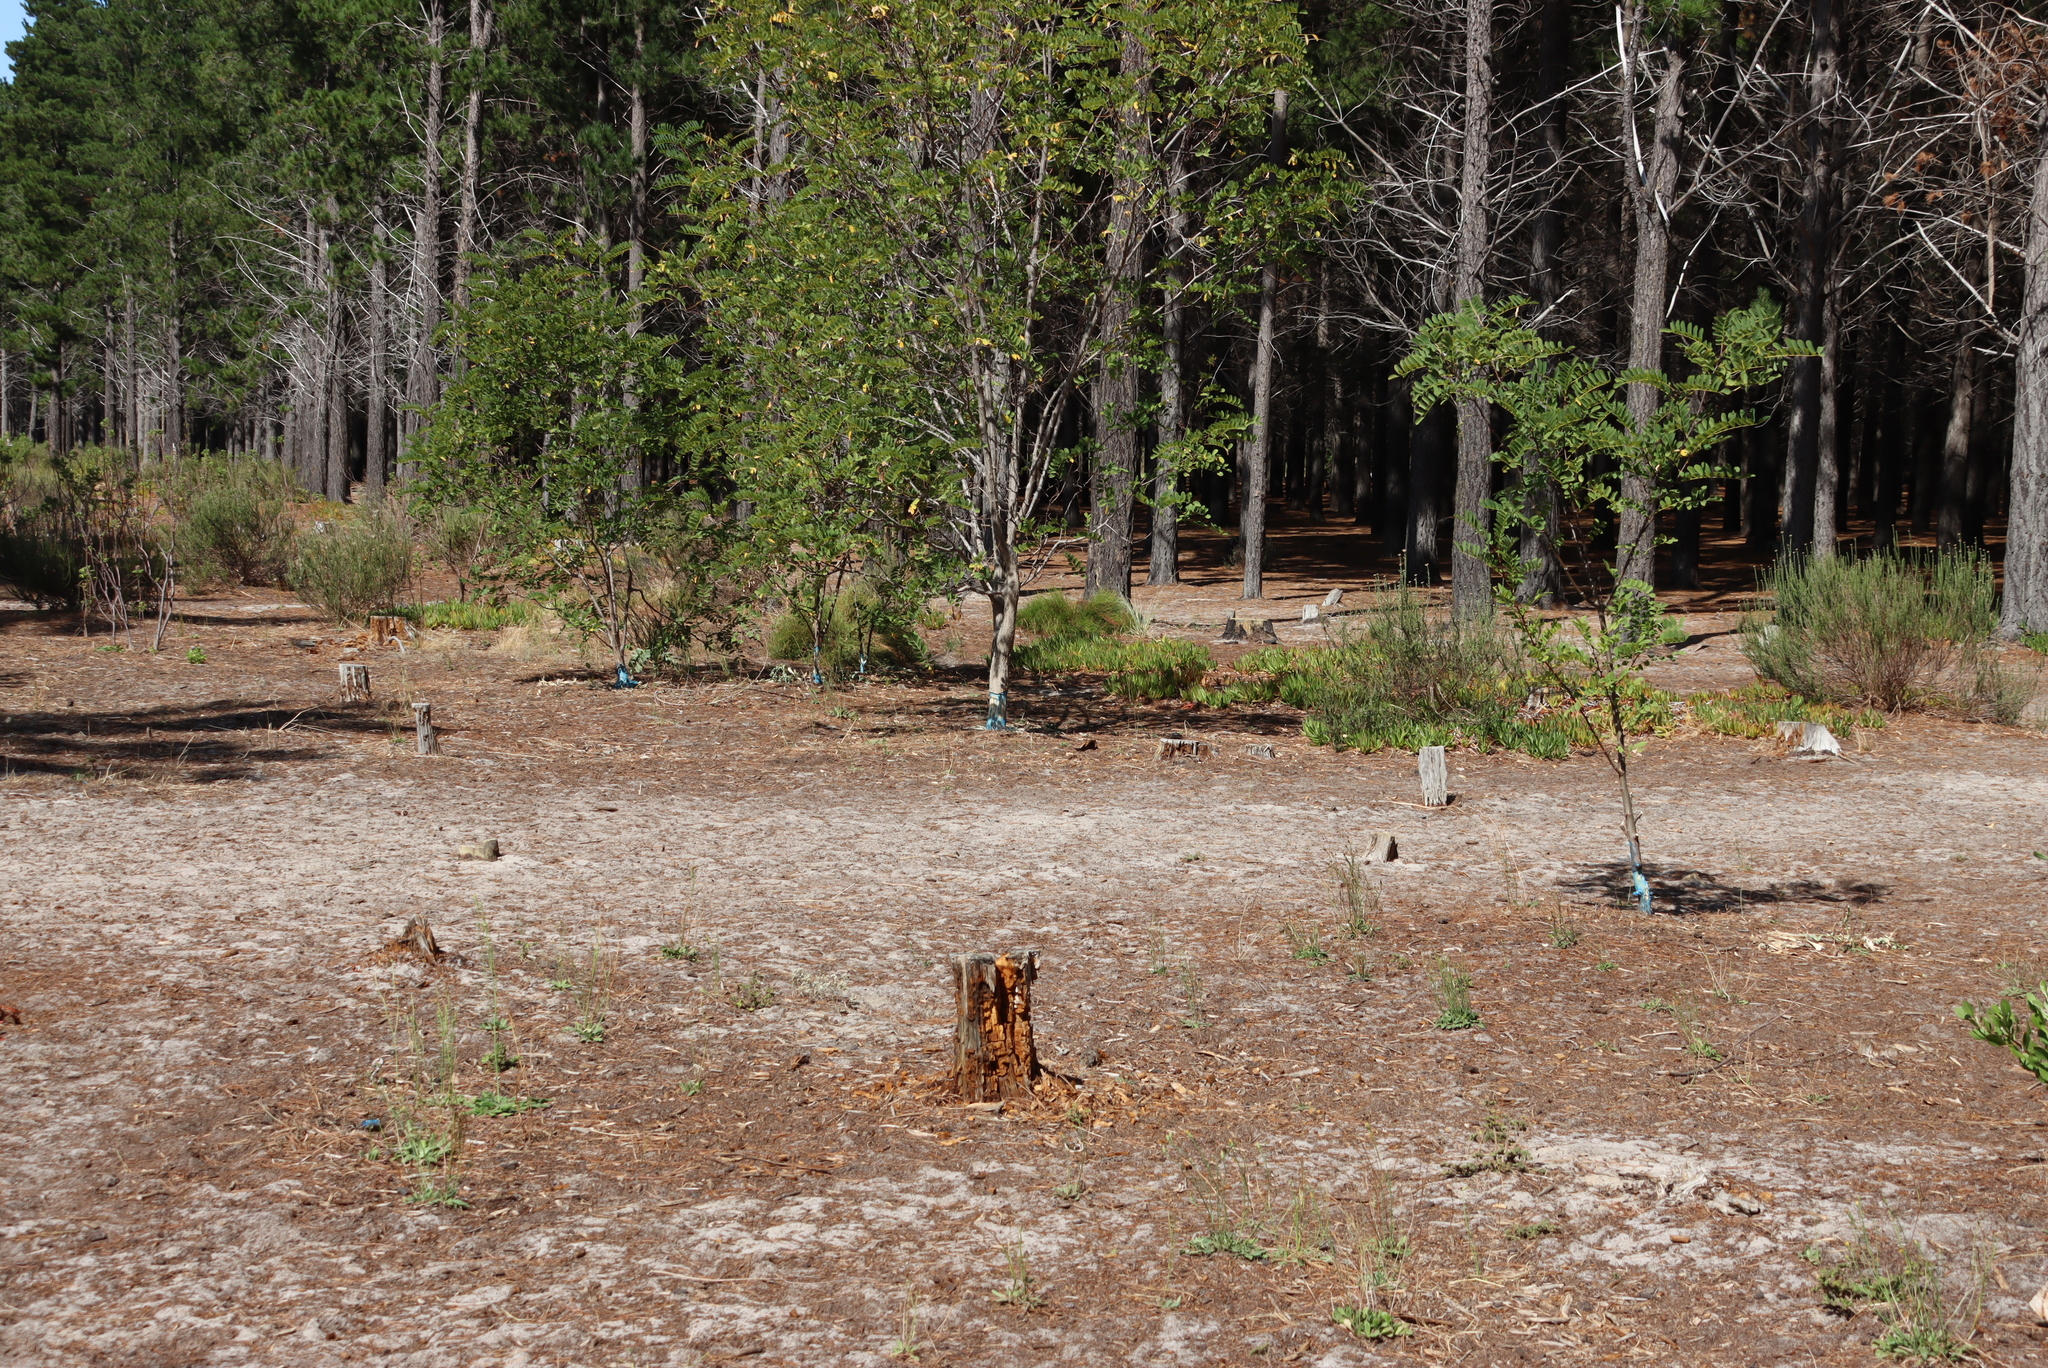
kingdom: Plantae
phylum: Tracheophyta
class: Magnoliopsida
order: Fabales
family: Fabaceae
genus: Robinia
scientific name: Robinia pseudoacacia
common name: Black locust
